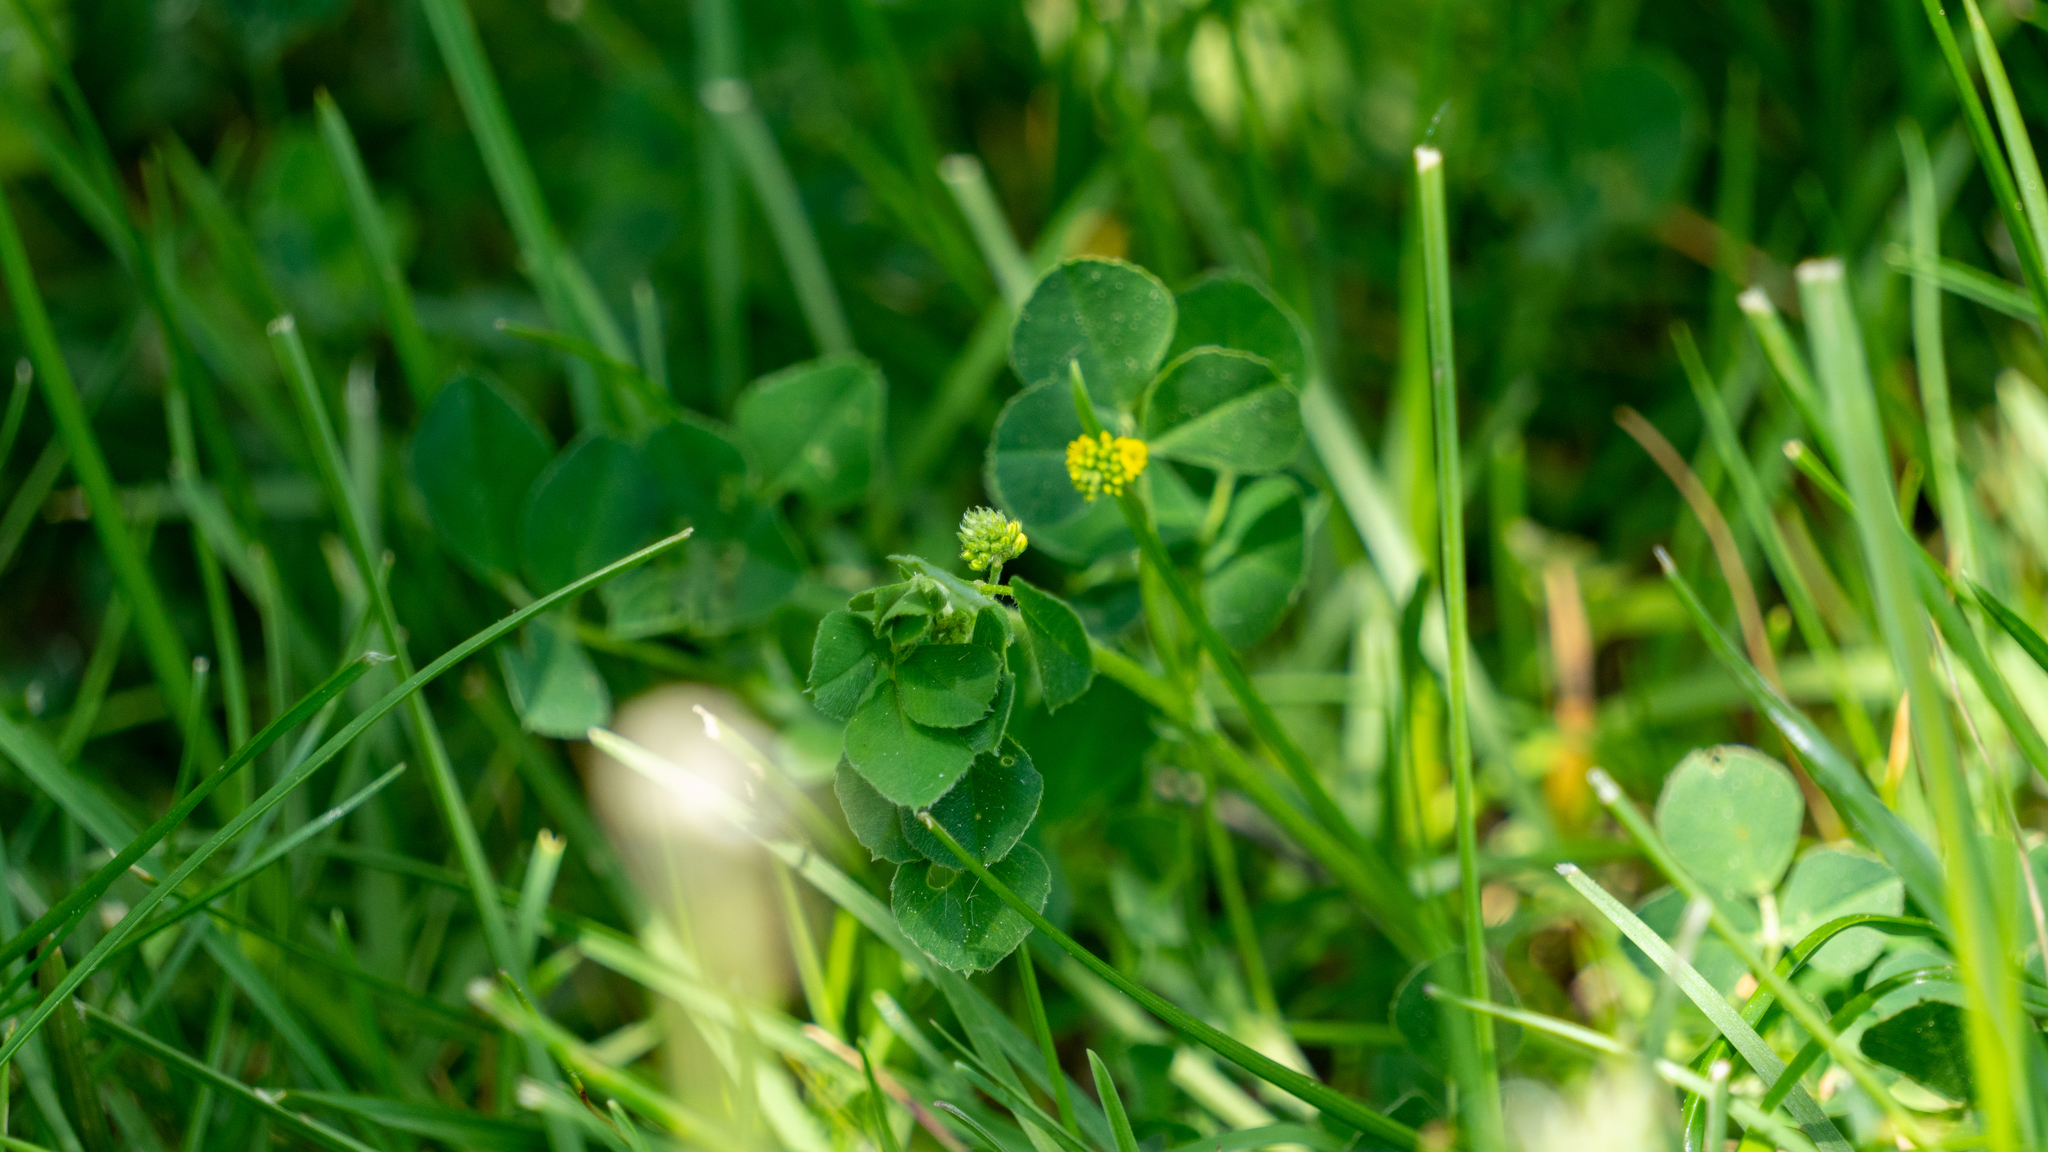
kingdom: Plantae
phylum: Tracheophyta
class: Magnoliopsida
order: Fabales
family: Fabaceae
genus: Medicago
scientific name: Medicago lupulina
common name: Black medick
